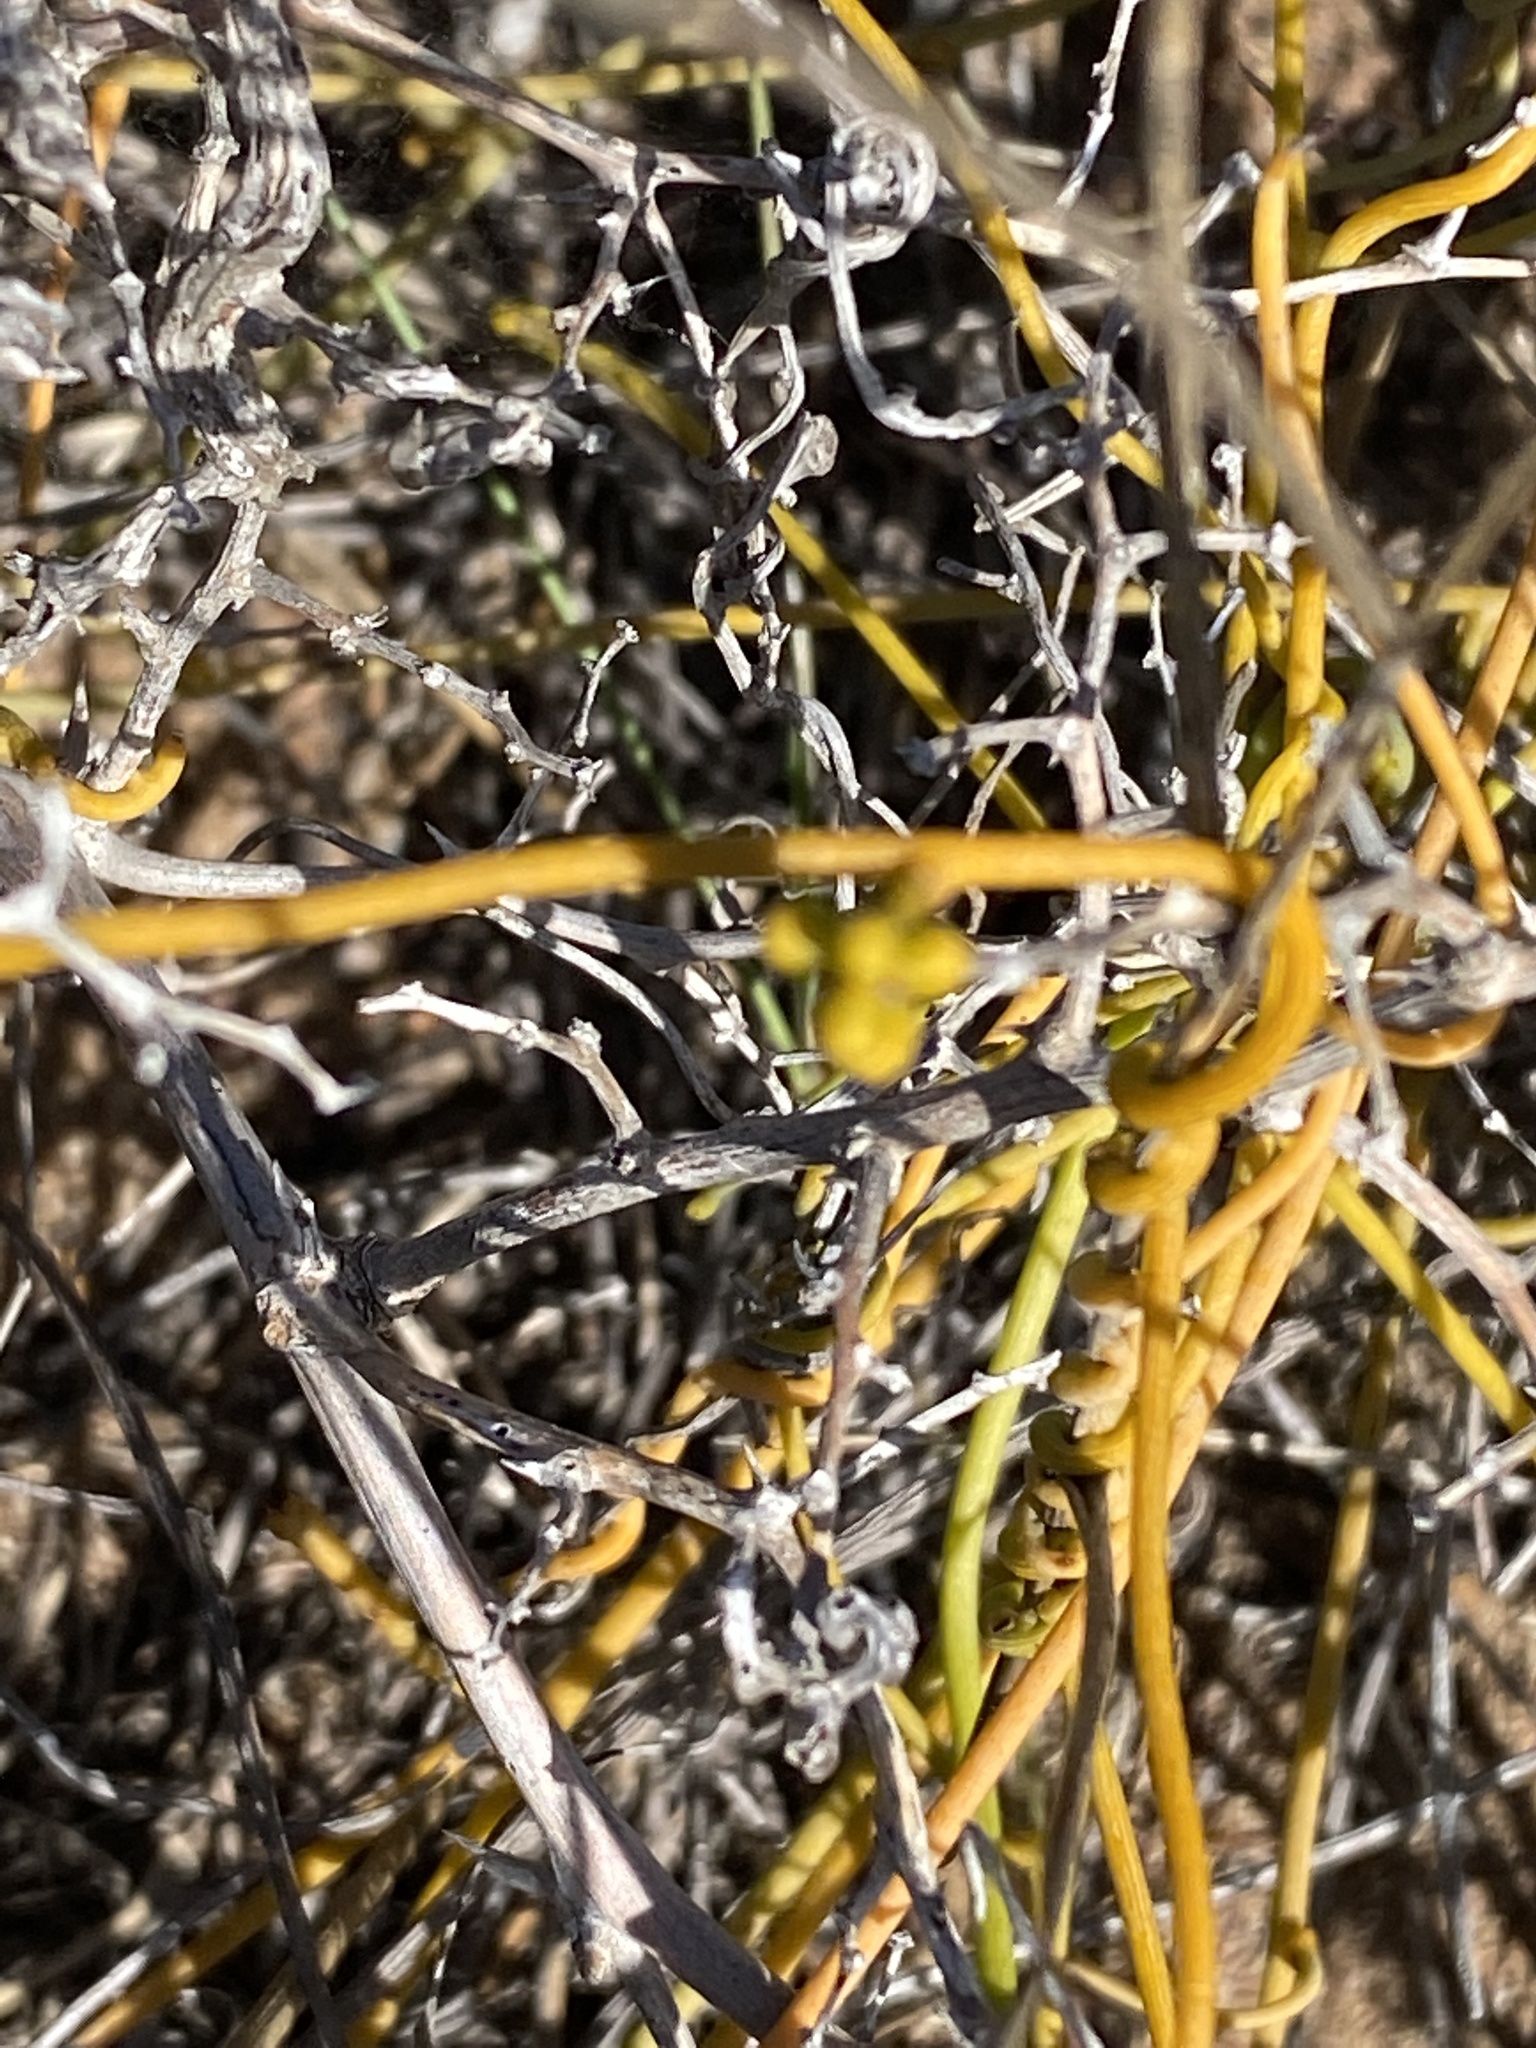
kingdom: Plantae
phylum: Tracheophyta
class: Magnoliopsida
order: Laurales
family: Lauraceae
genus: Cassytha
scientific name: Cassytha ciliolata
